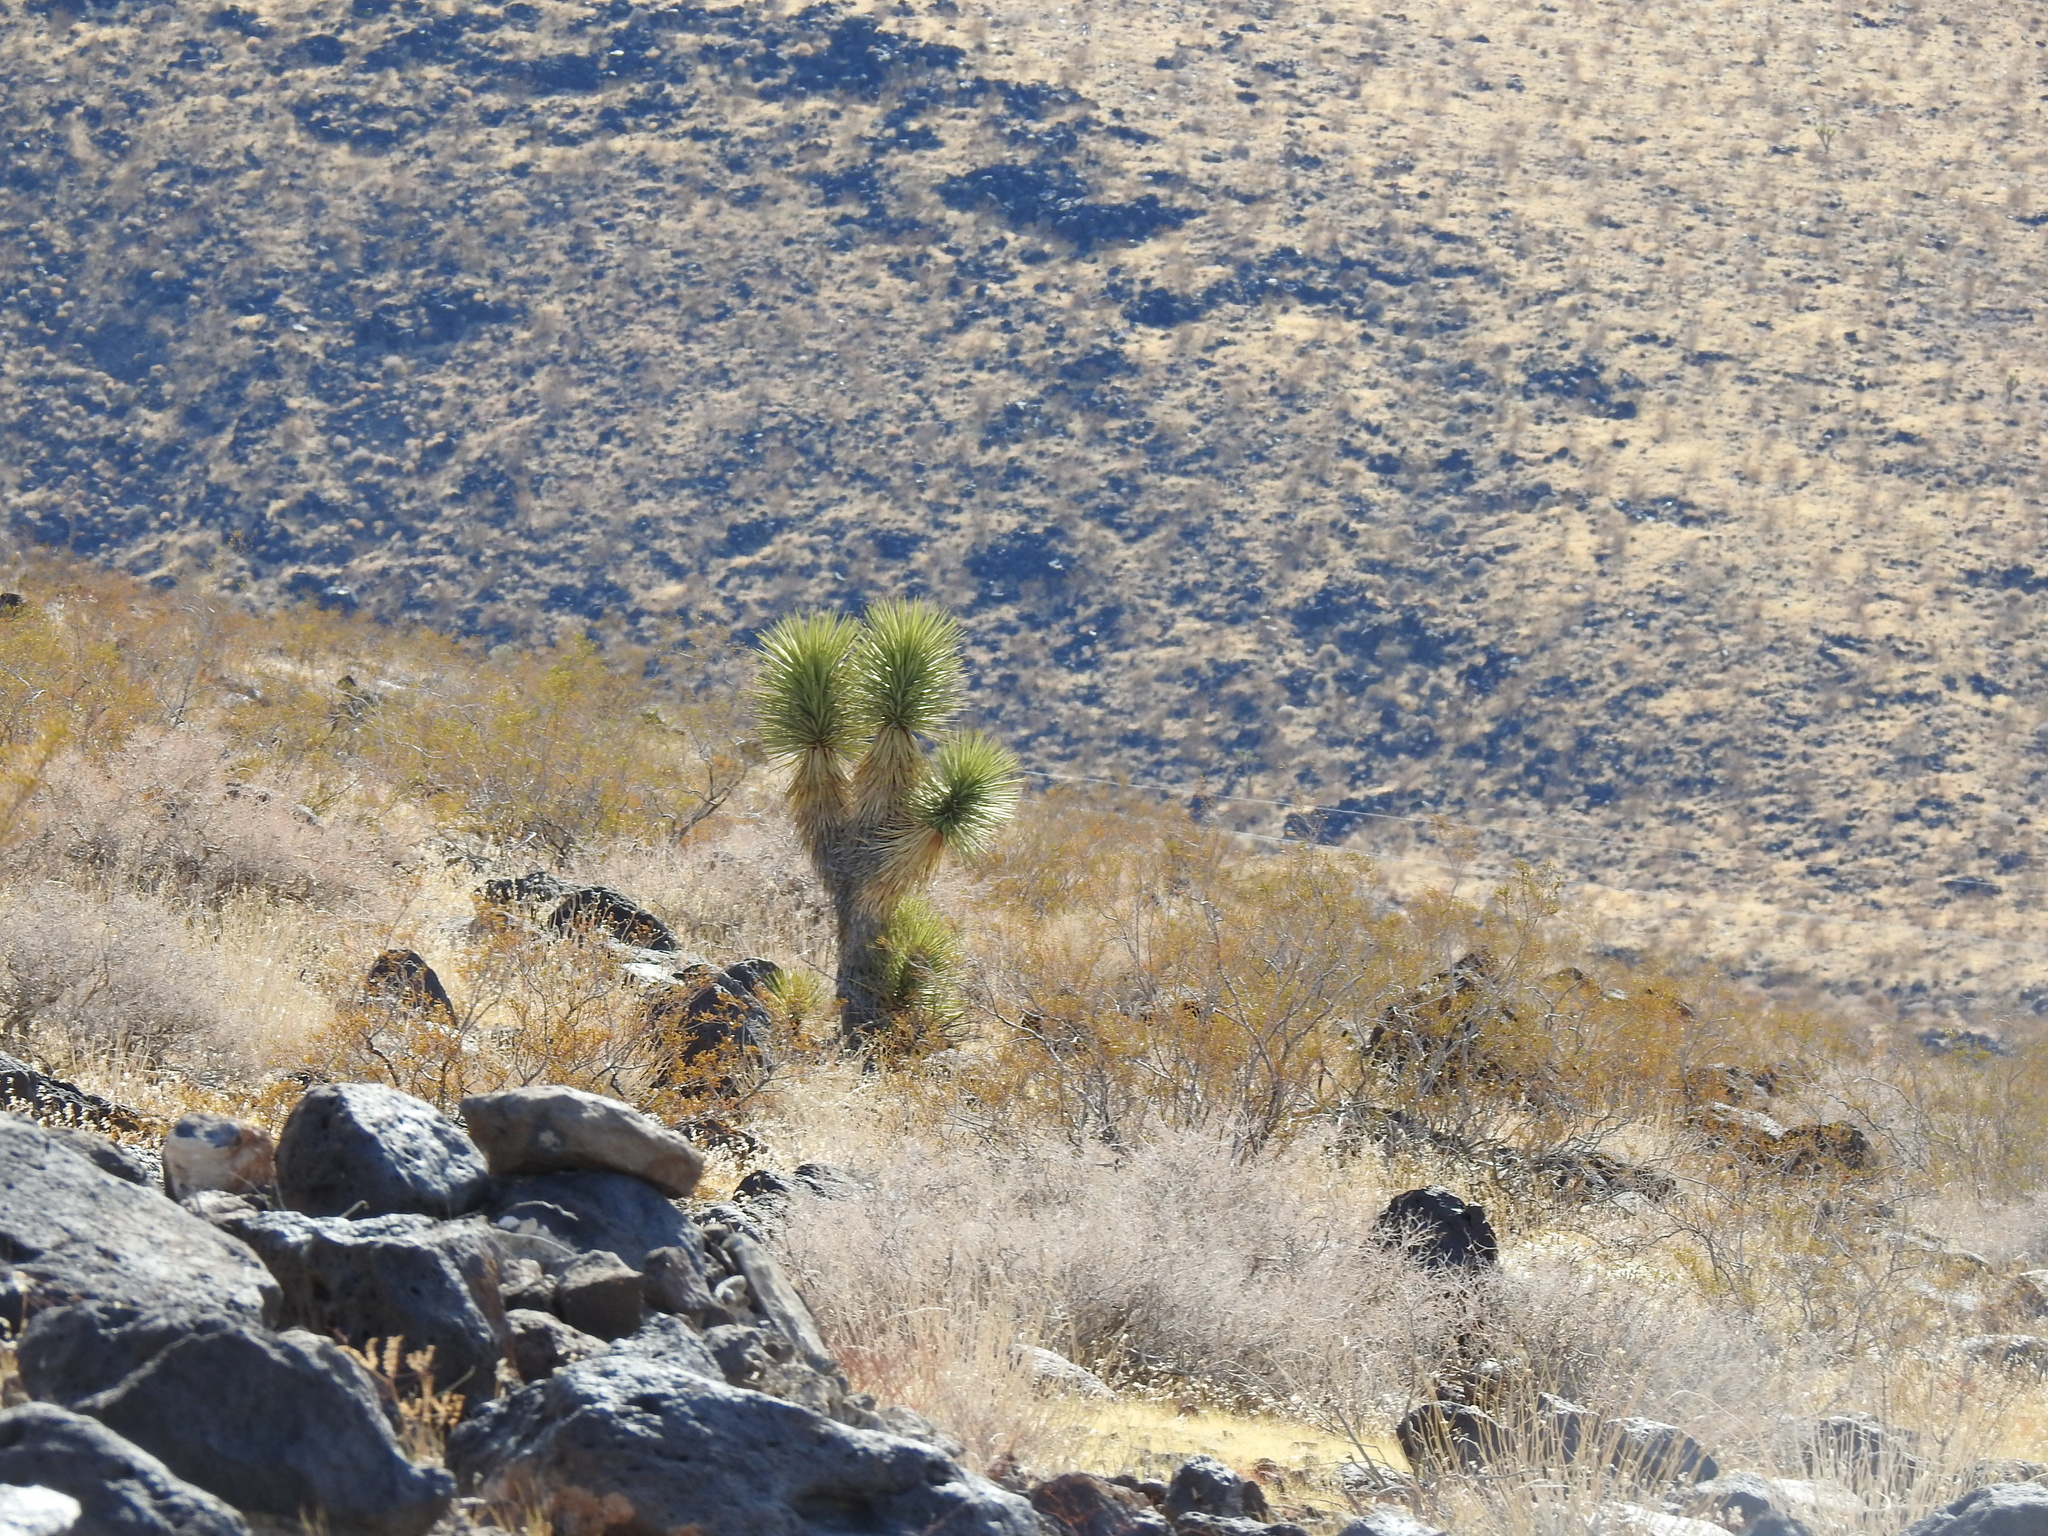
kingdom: Plantae
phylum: Tracheophyta
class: Liliopsida
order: Asparagales
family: Asparagaceae
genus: Yucca
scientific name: Yucca brevifolia
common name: Joshua tree
